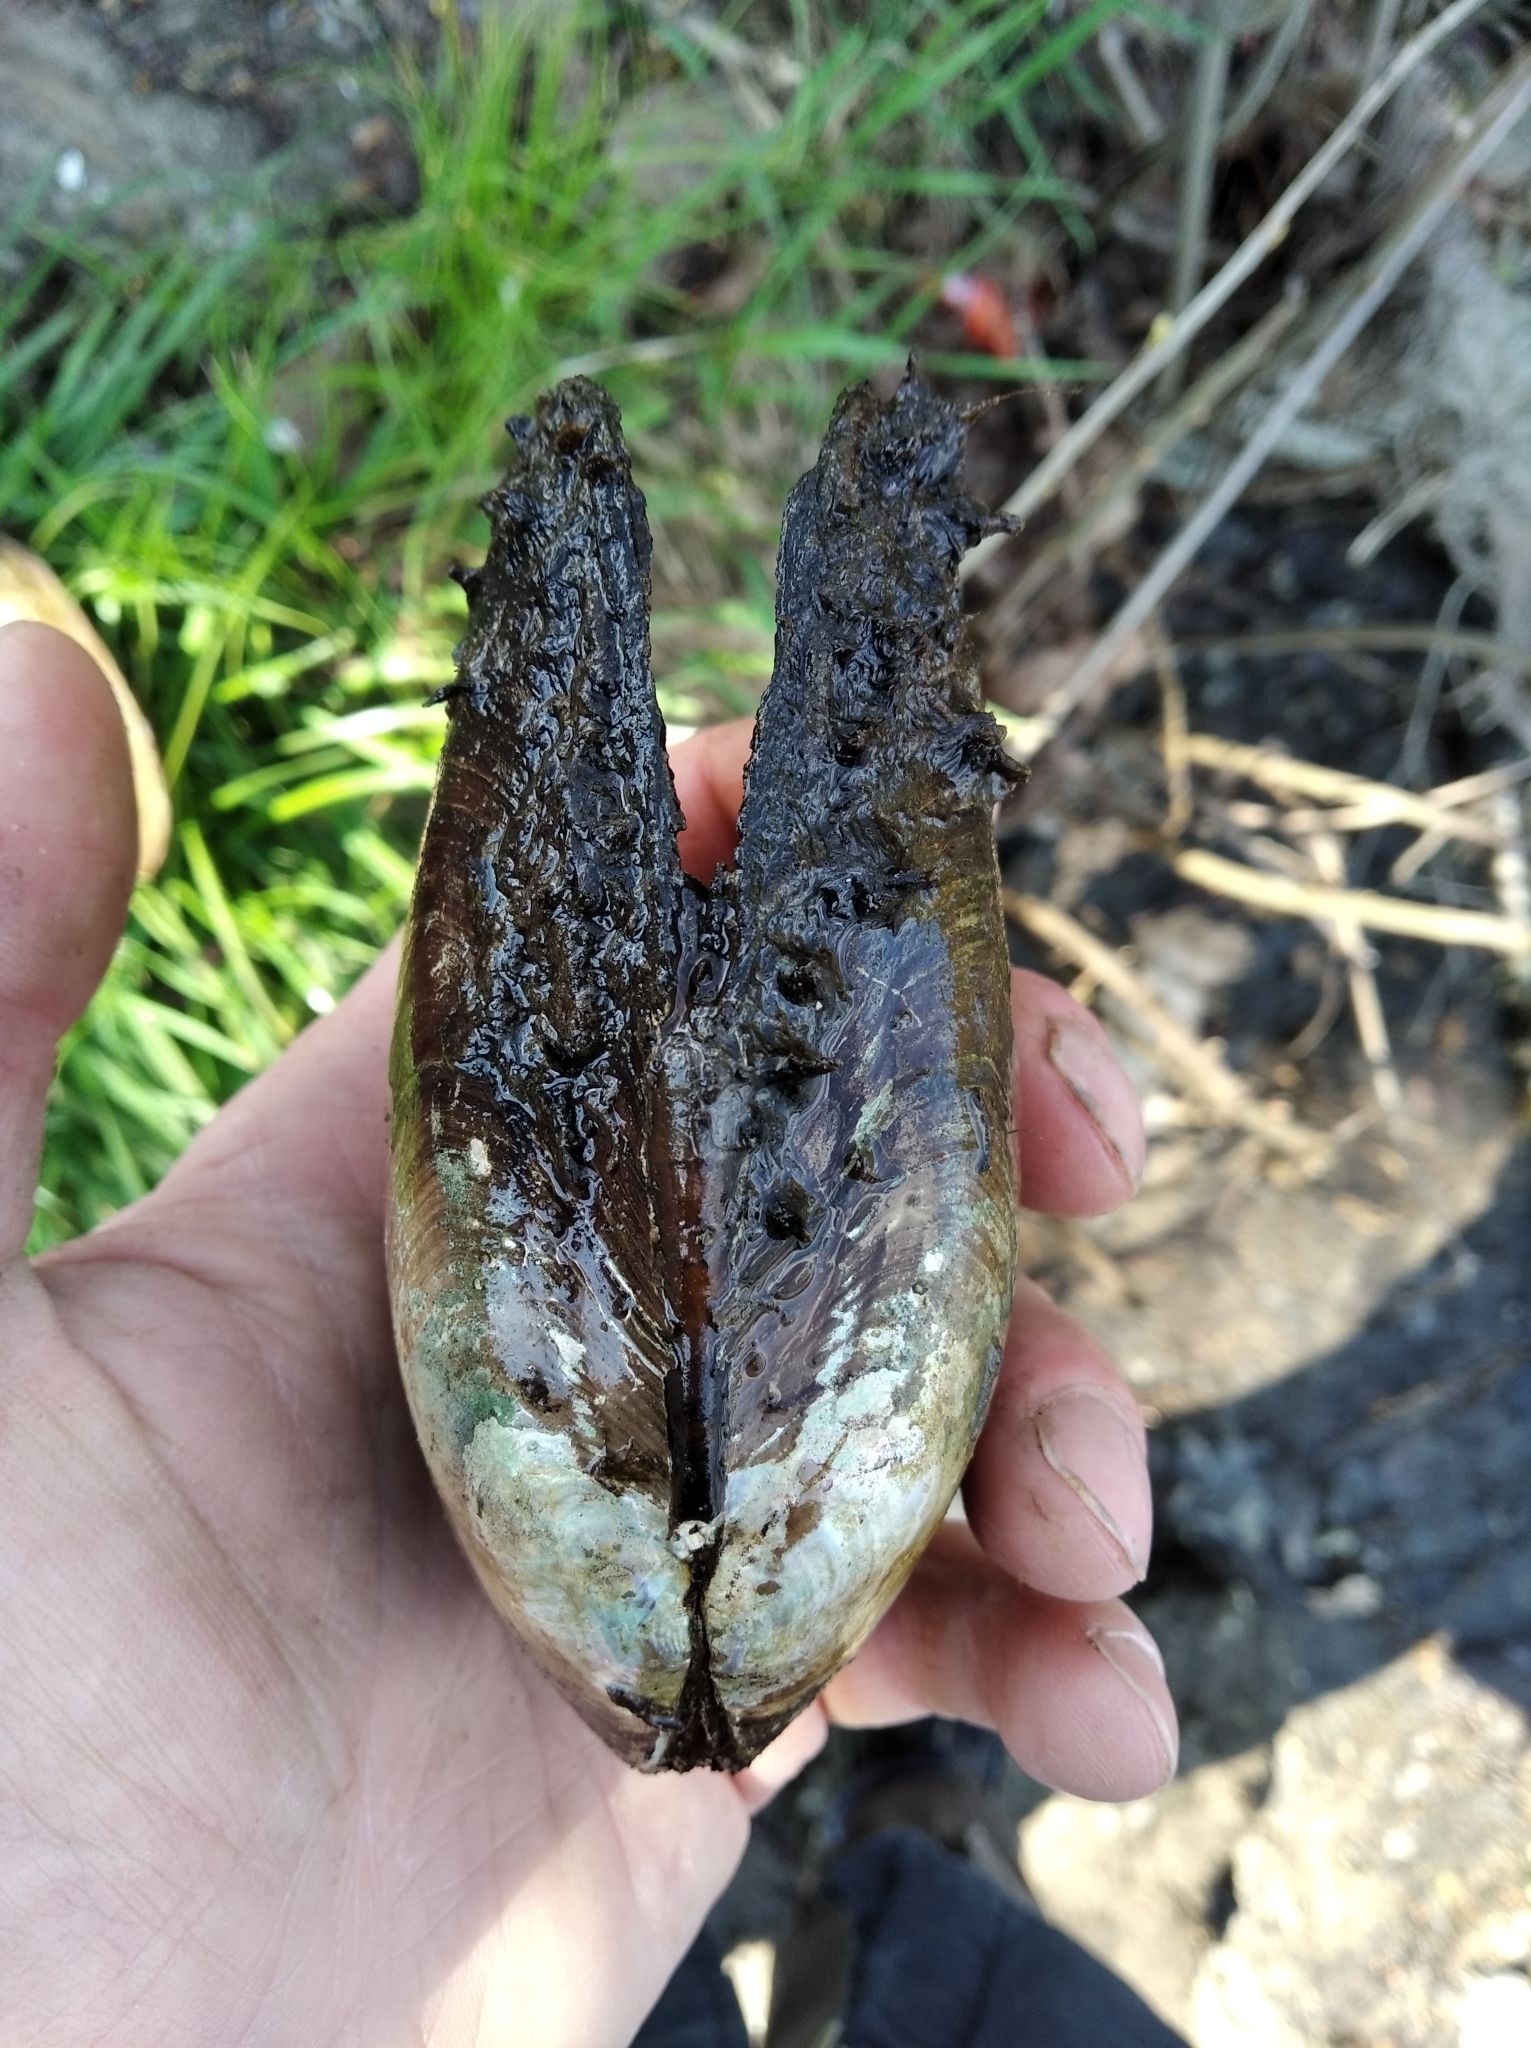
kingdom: Animalia
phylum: Mollusca
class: Bivalvia
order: Unionida
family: Unionidae
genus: Anodonta
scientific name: Anodonta anatina
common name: Duck mussel
